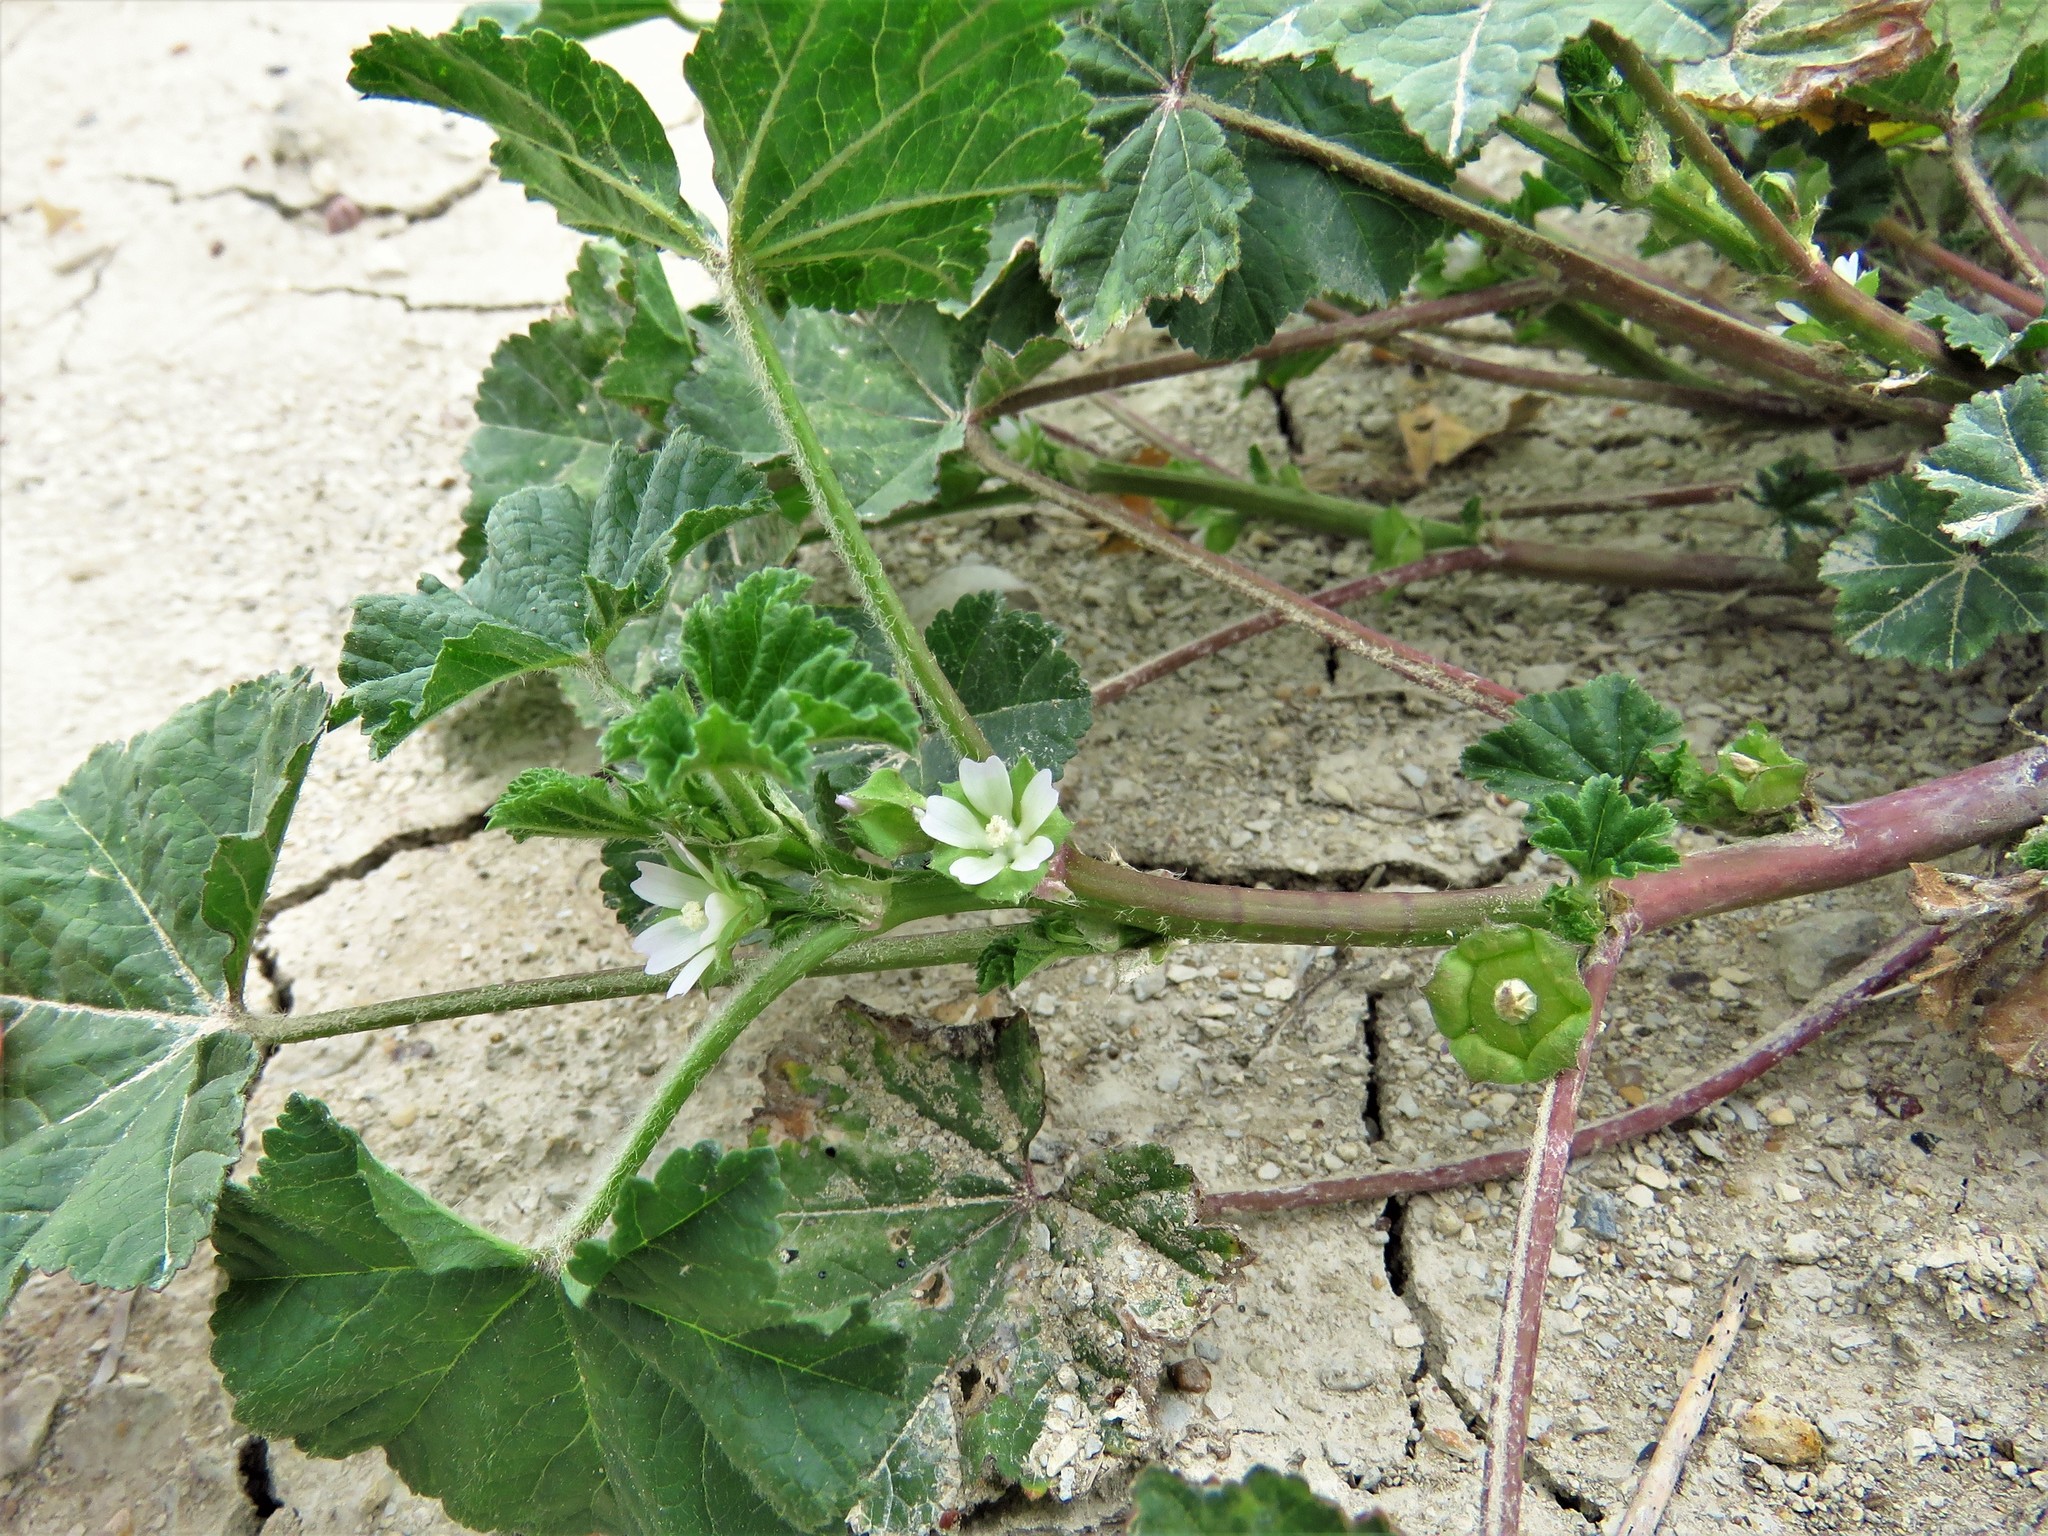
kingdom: Plantae
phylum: Tracheophyta
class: Magnoliopsida
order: Malvales
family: Malvaceae
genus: Malva
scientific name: Malva parviflora
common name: Least mallow
